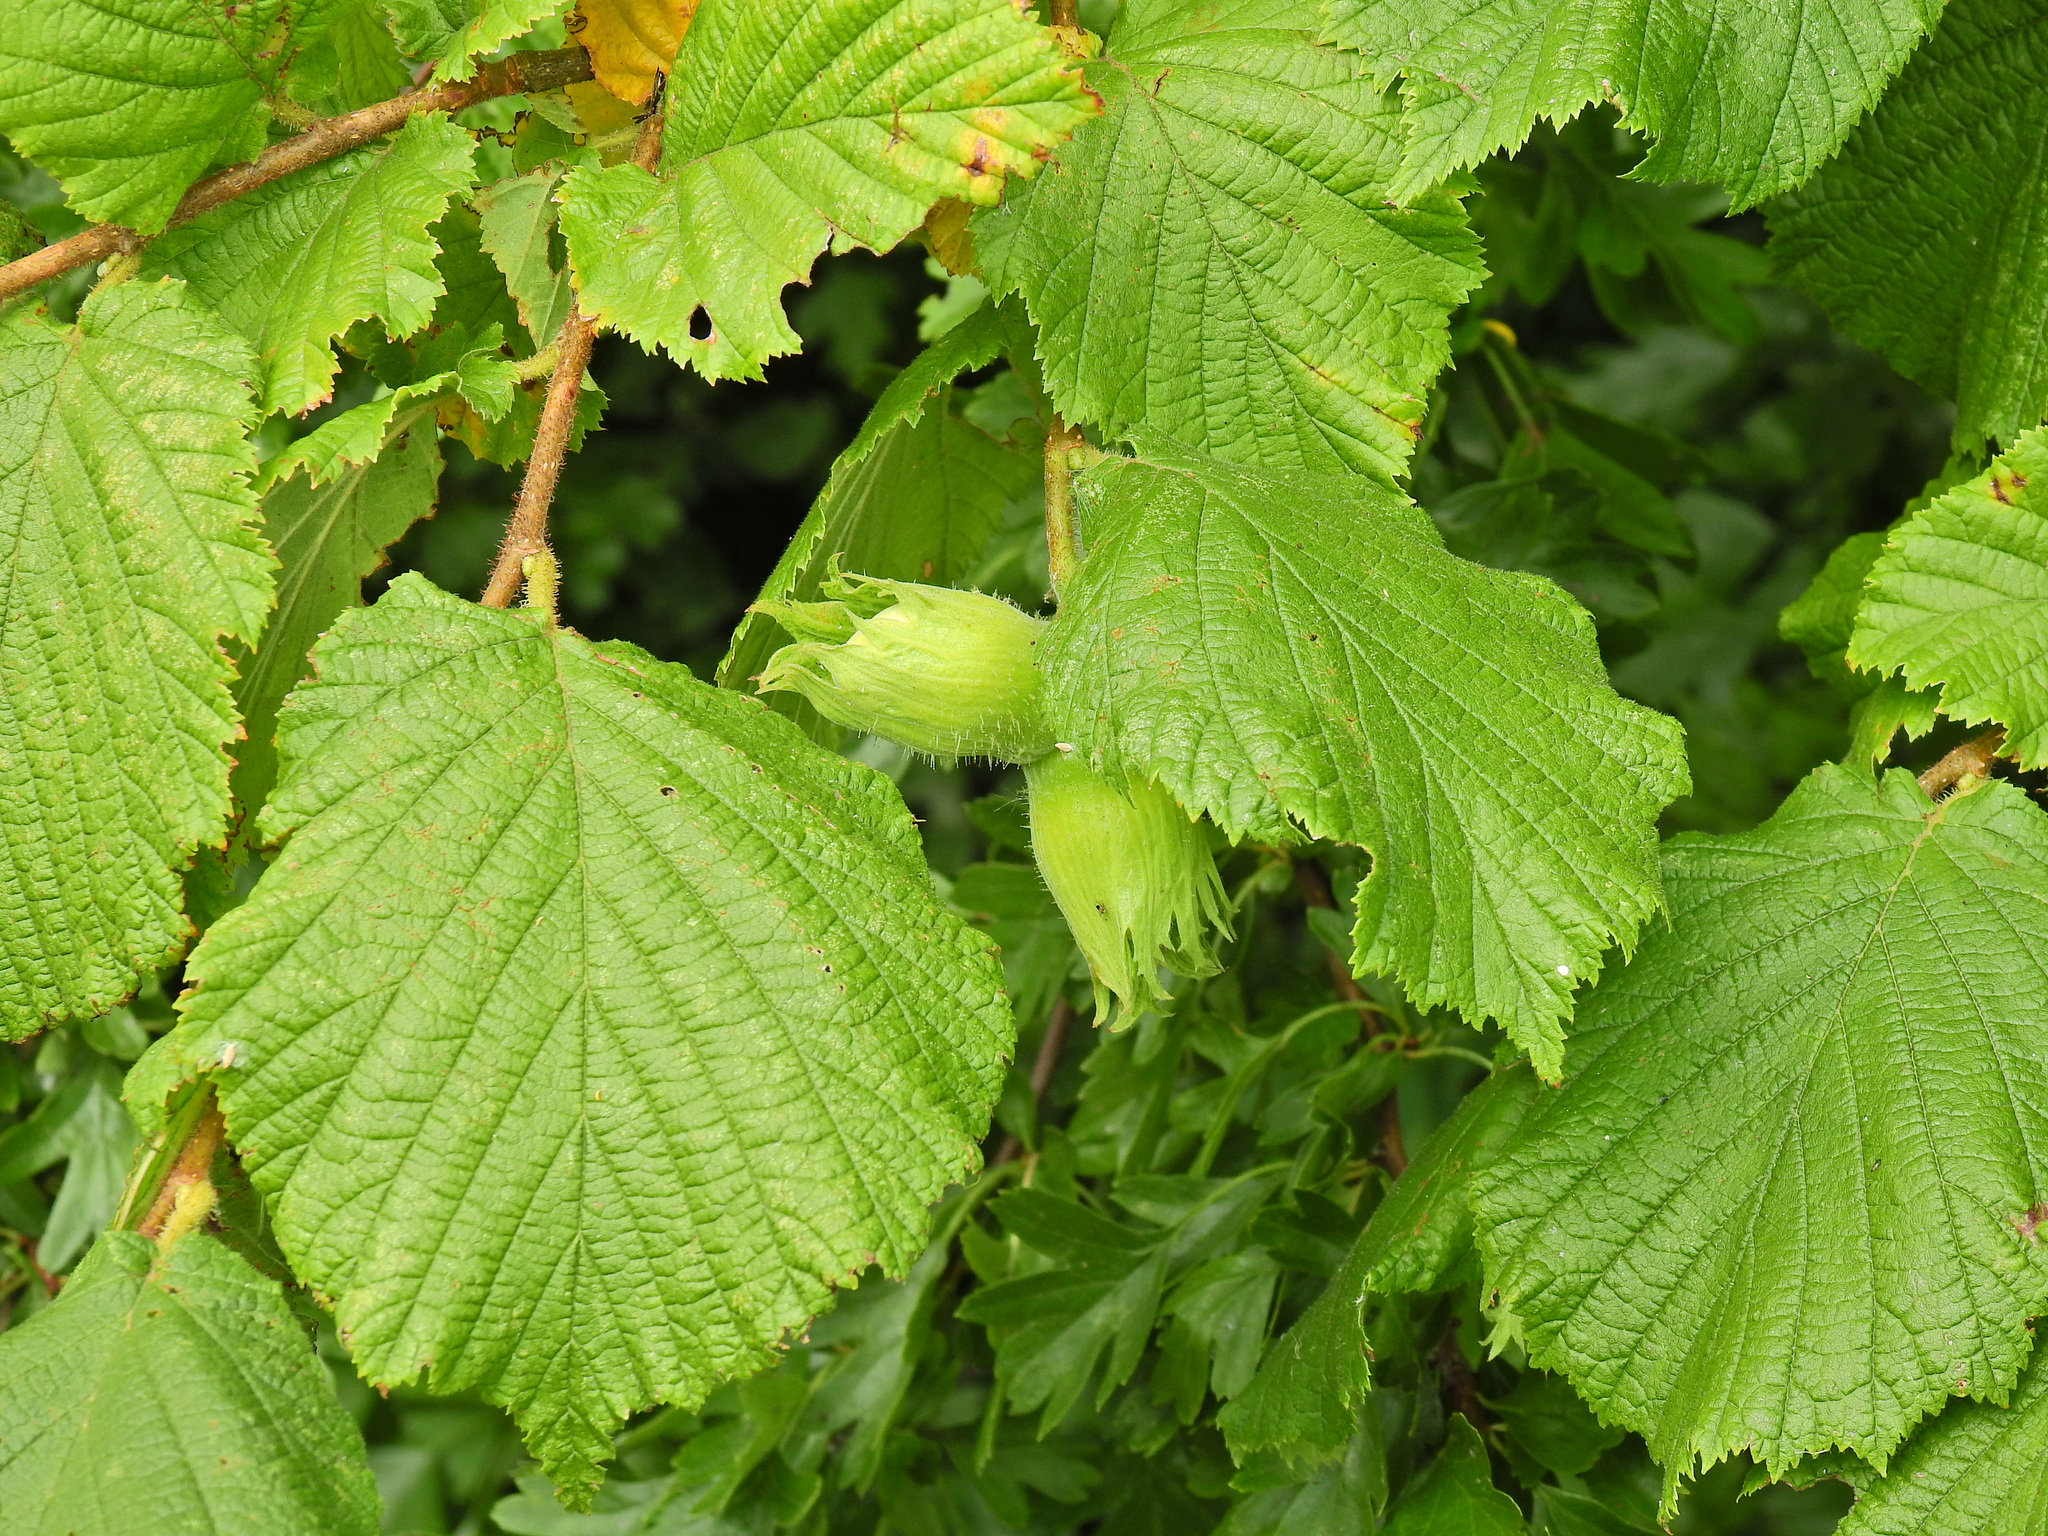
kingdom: Plantae
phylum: Tracheophyta
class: Magnoliopsida
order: Fagales
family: Betulaceae
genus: Corylus
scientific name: Corylus avellana
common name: European hazel
